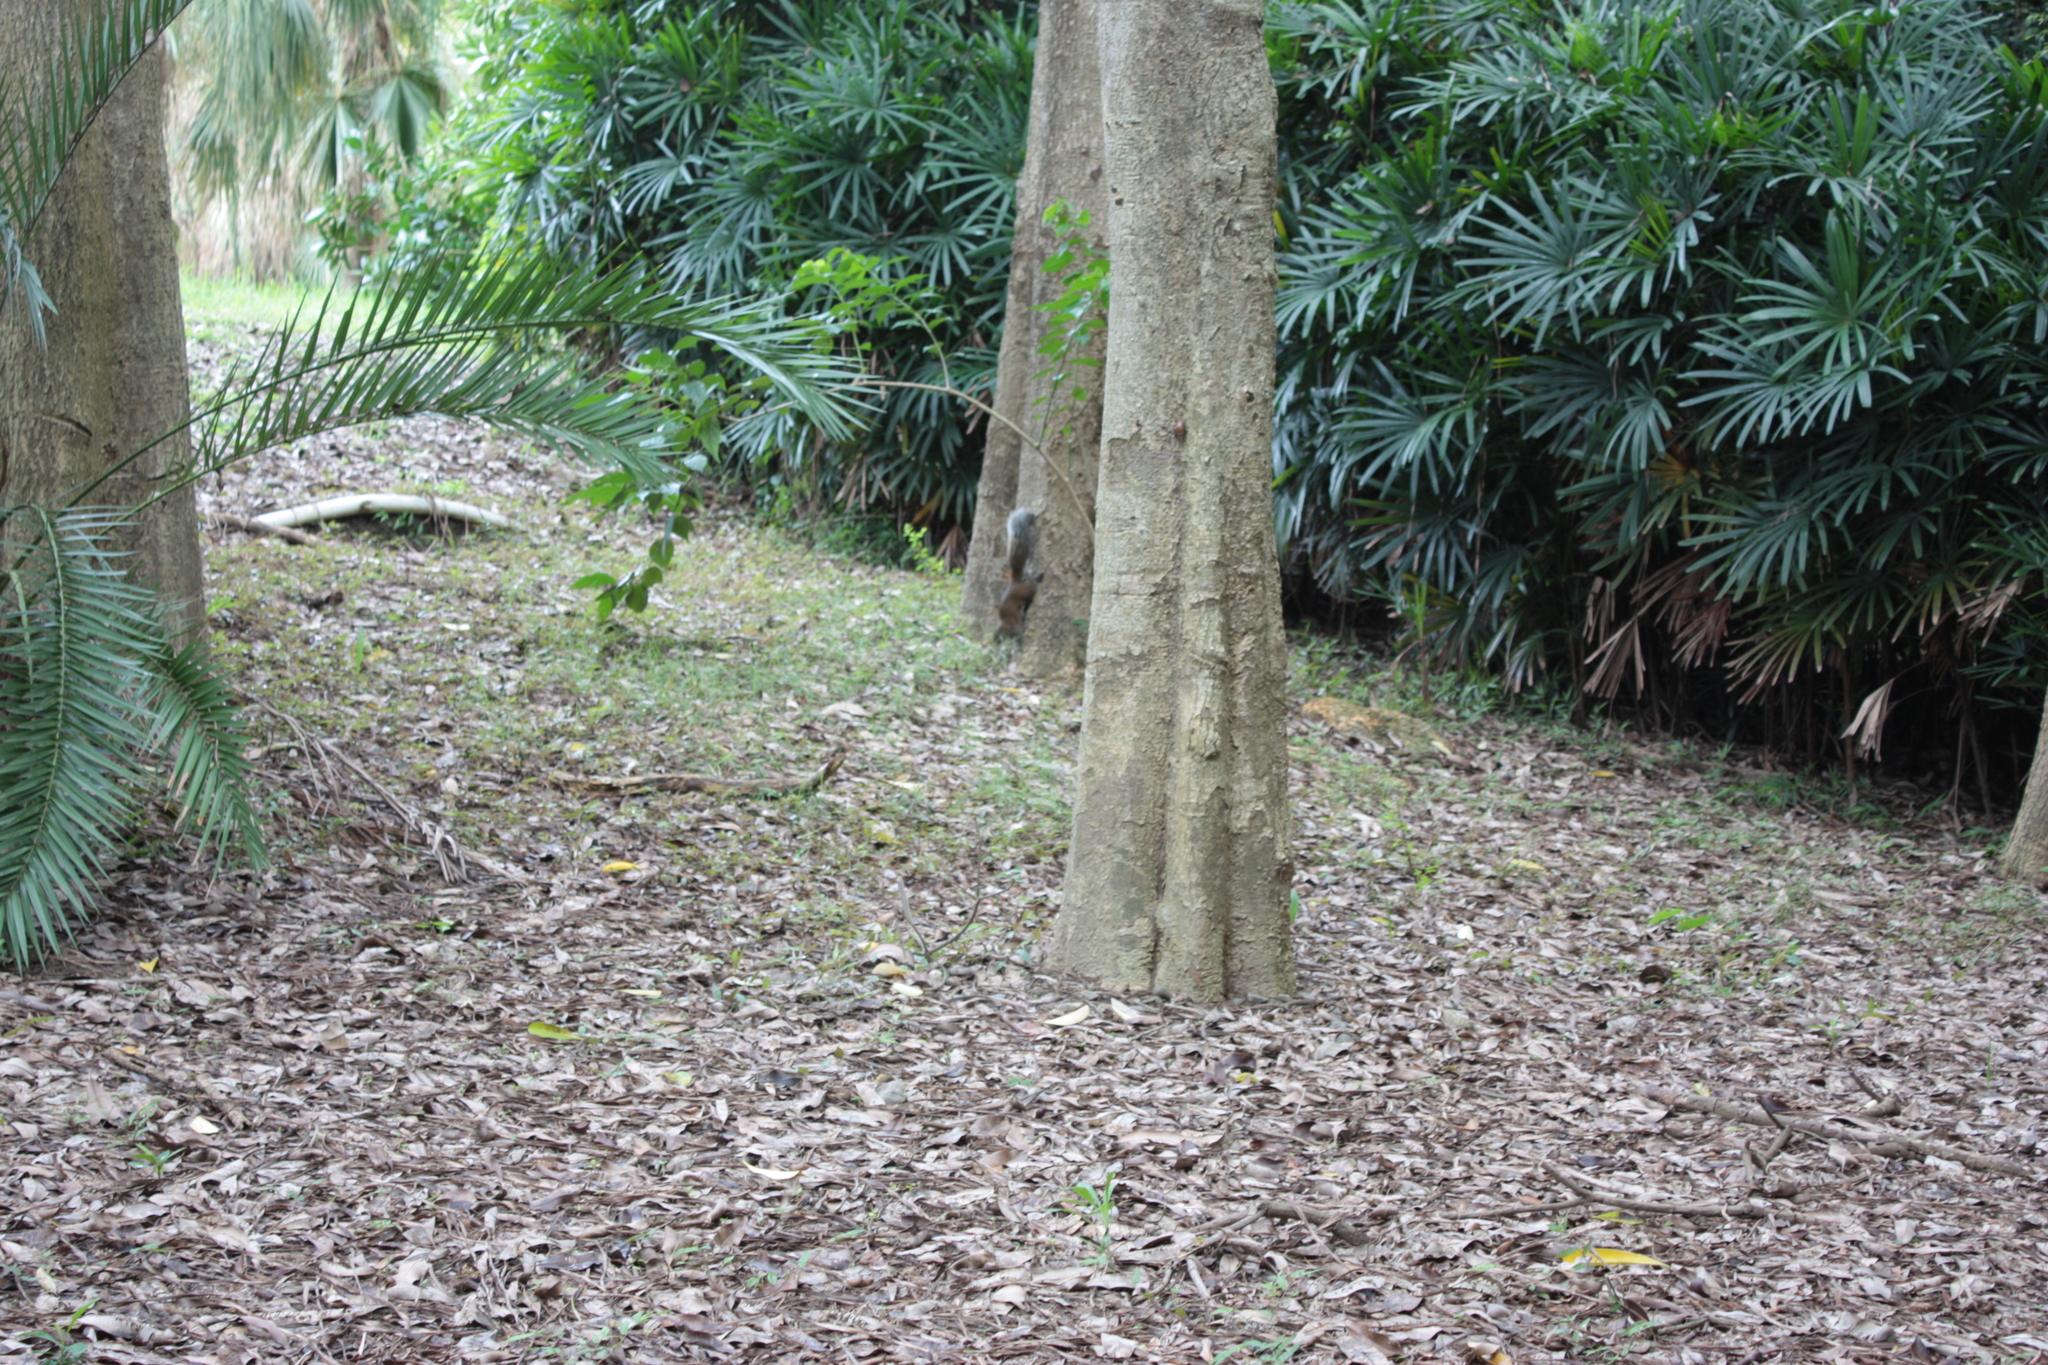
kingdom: Animalia
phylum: Chordata
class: Mammalia
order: Rodentia
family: Sciuridae
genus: Callosciurus
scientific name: Callosciurus erythraeus
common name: Pallas's squirrel
